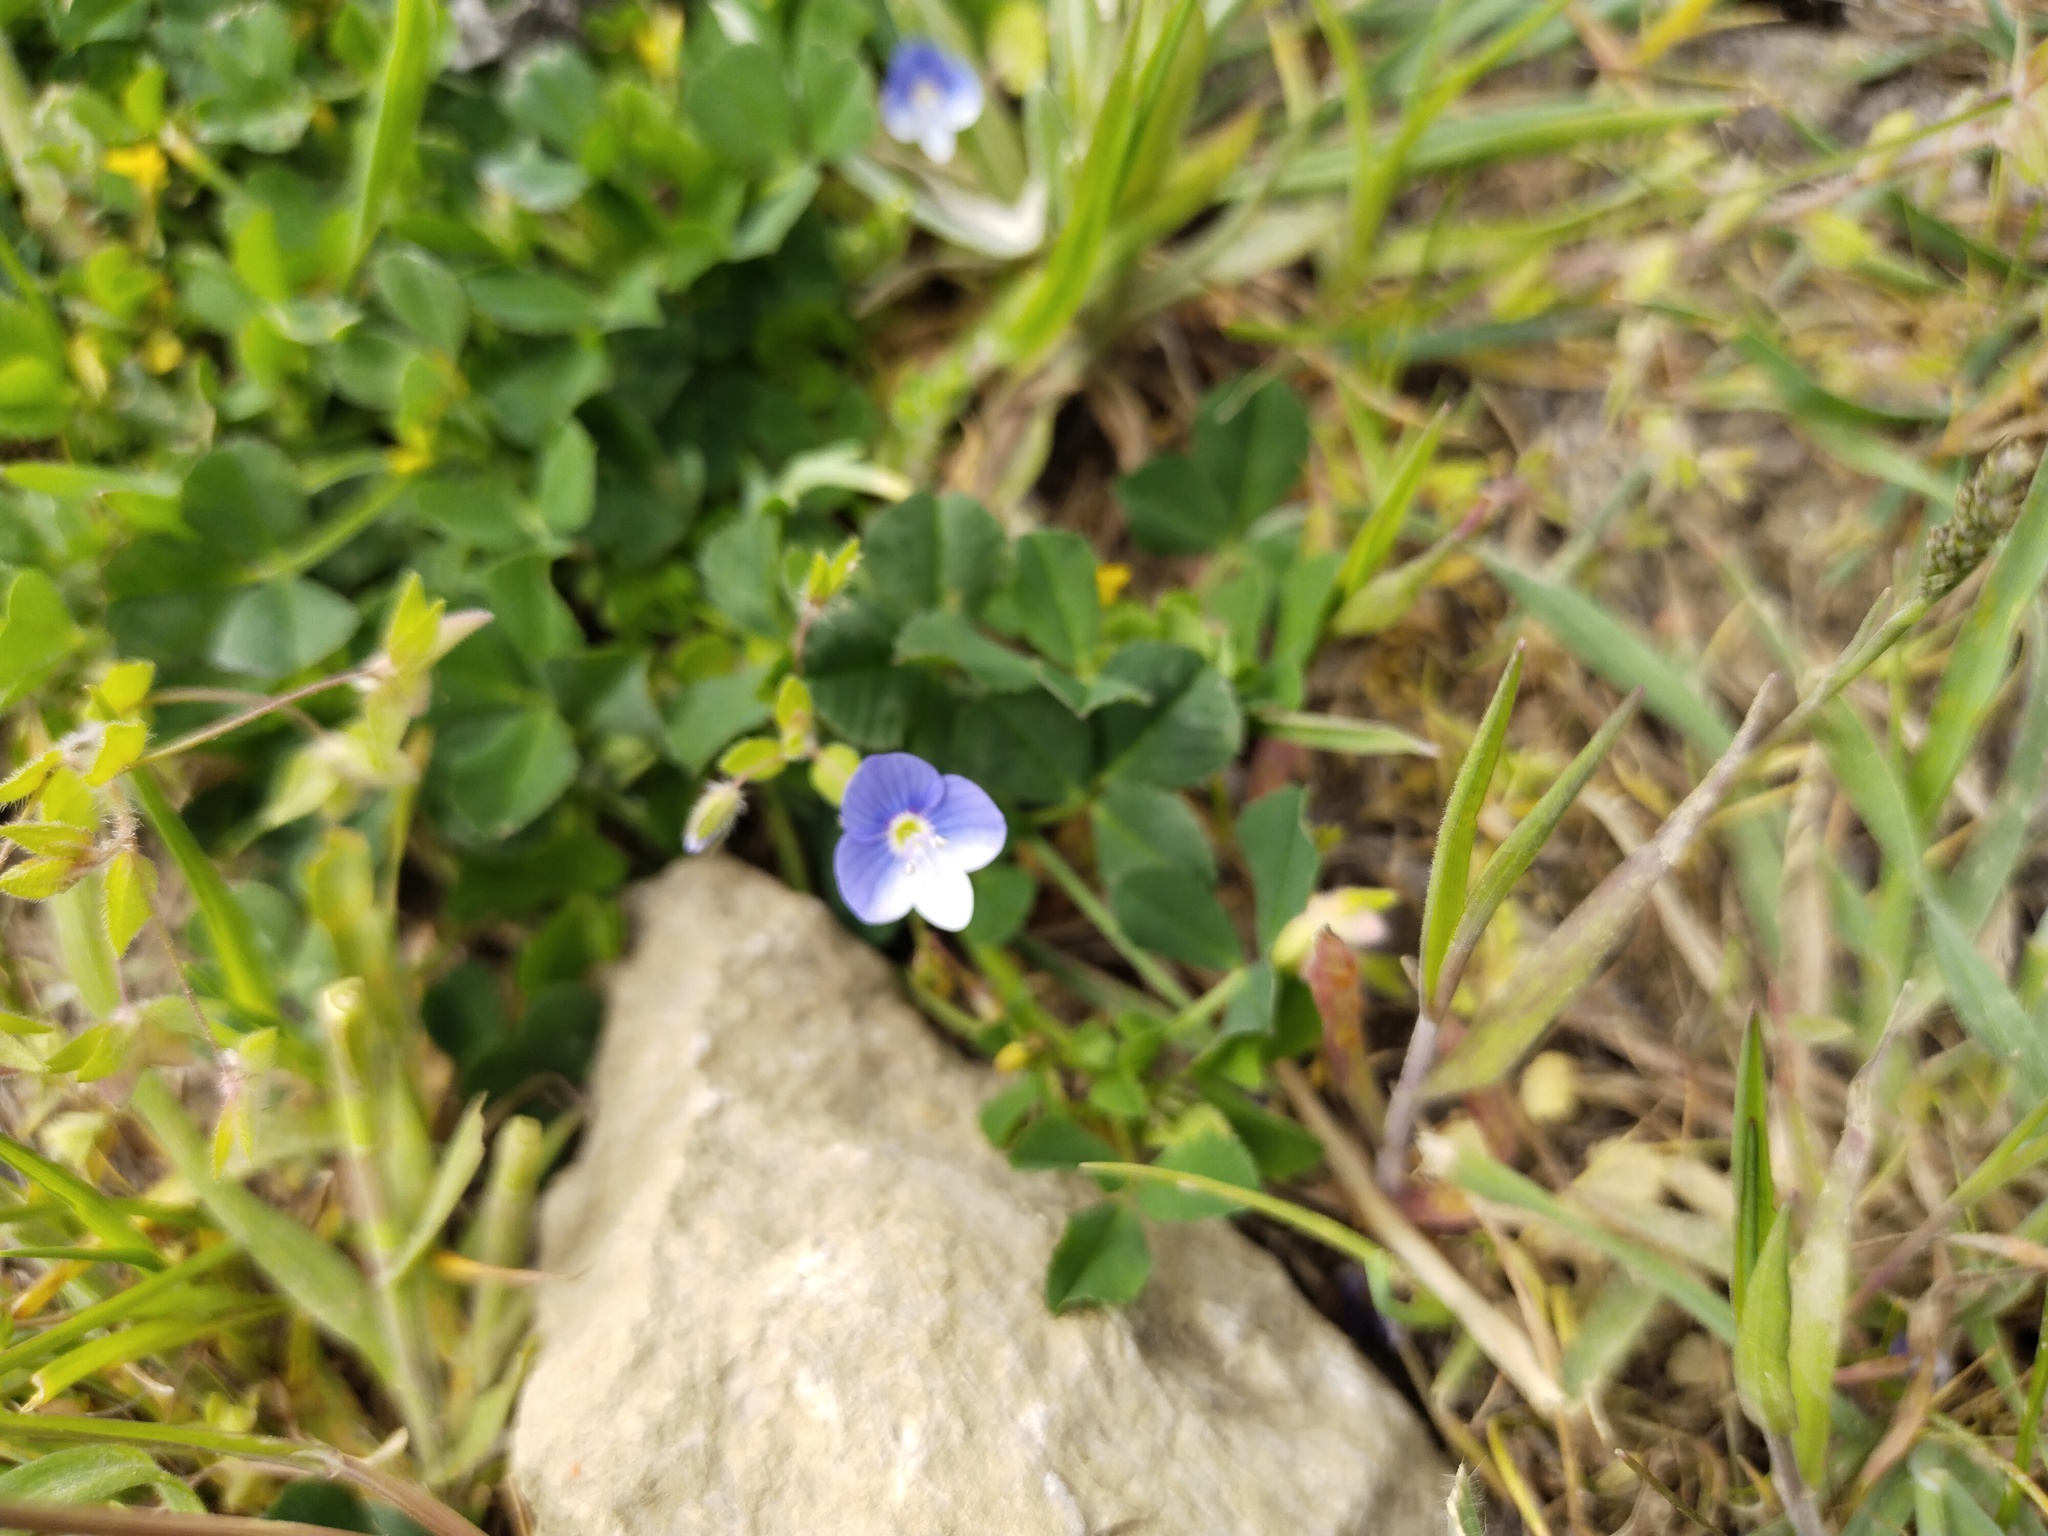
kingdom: Plantae
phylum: Tracheophyta
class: Magnoliopsida
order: Lamiales
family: Plantaginaceae
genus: Veronica
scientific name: Veronica persica
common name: Common field-speedwell
